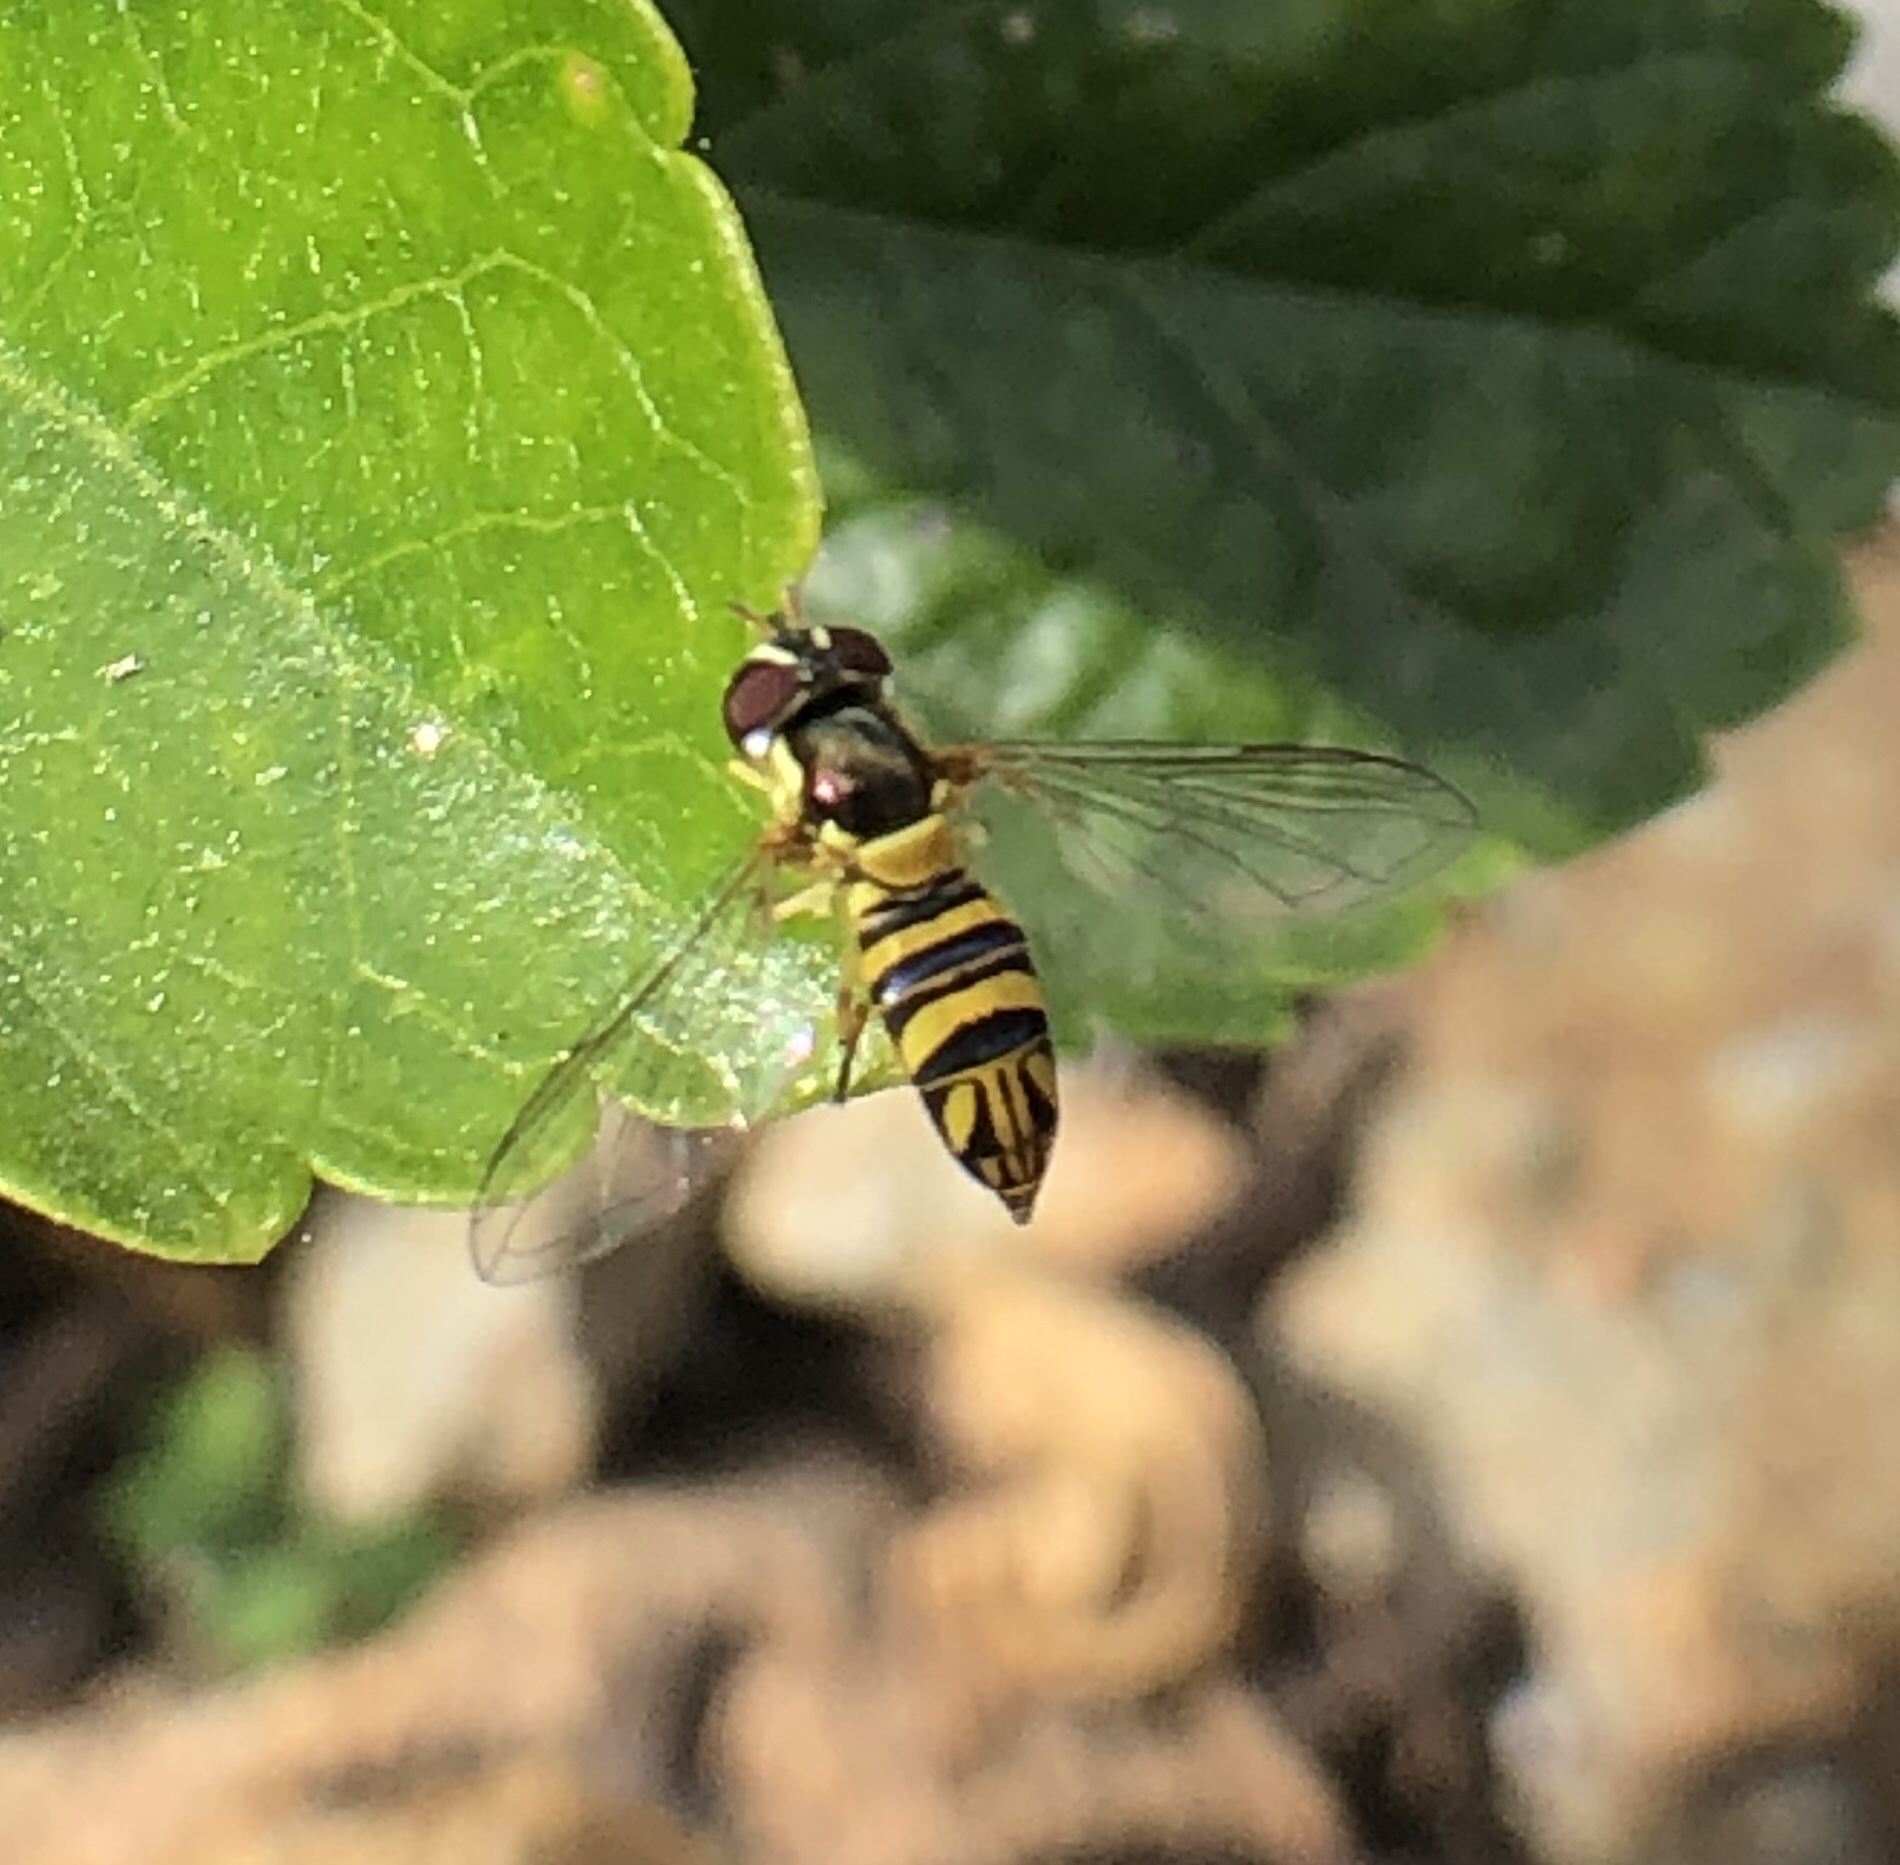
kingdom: Animalia
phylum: Arthropoda
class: Insecta
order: Diptera
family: Syrphidae
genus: Allograpta
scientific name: Allograpta obliqua
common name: Common oblique syrphid
